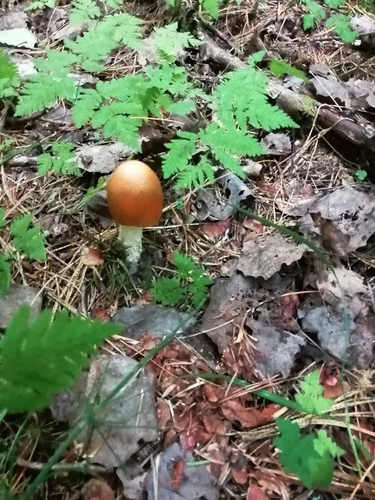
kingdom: Fungi
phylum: Basidiomycota
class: Agaricomycetes
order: Agaricales
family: Amanitaceae
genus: Amanita
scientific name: Amanita fulva
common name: Tawny grisette
